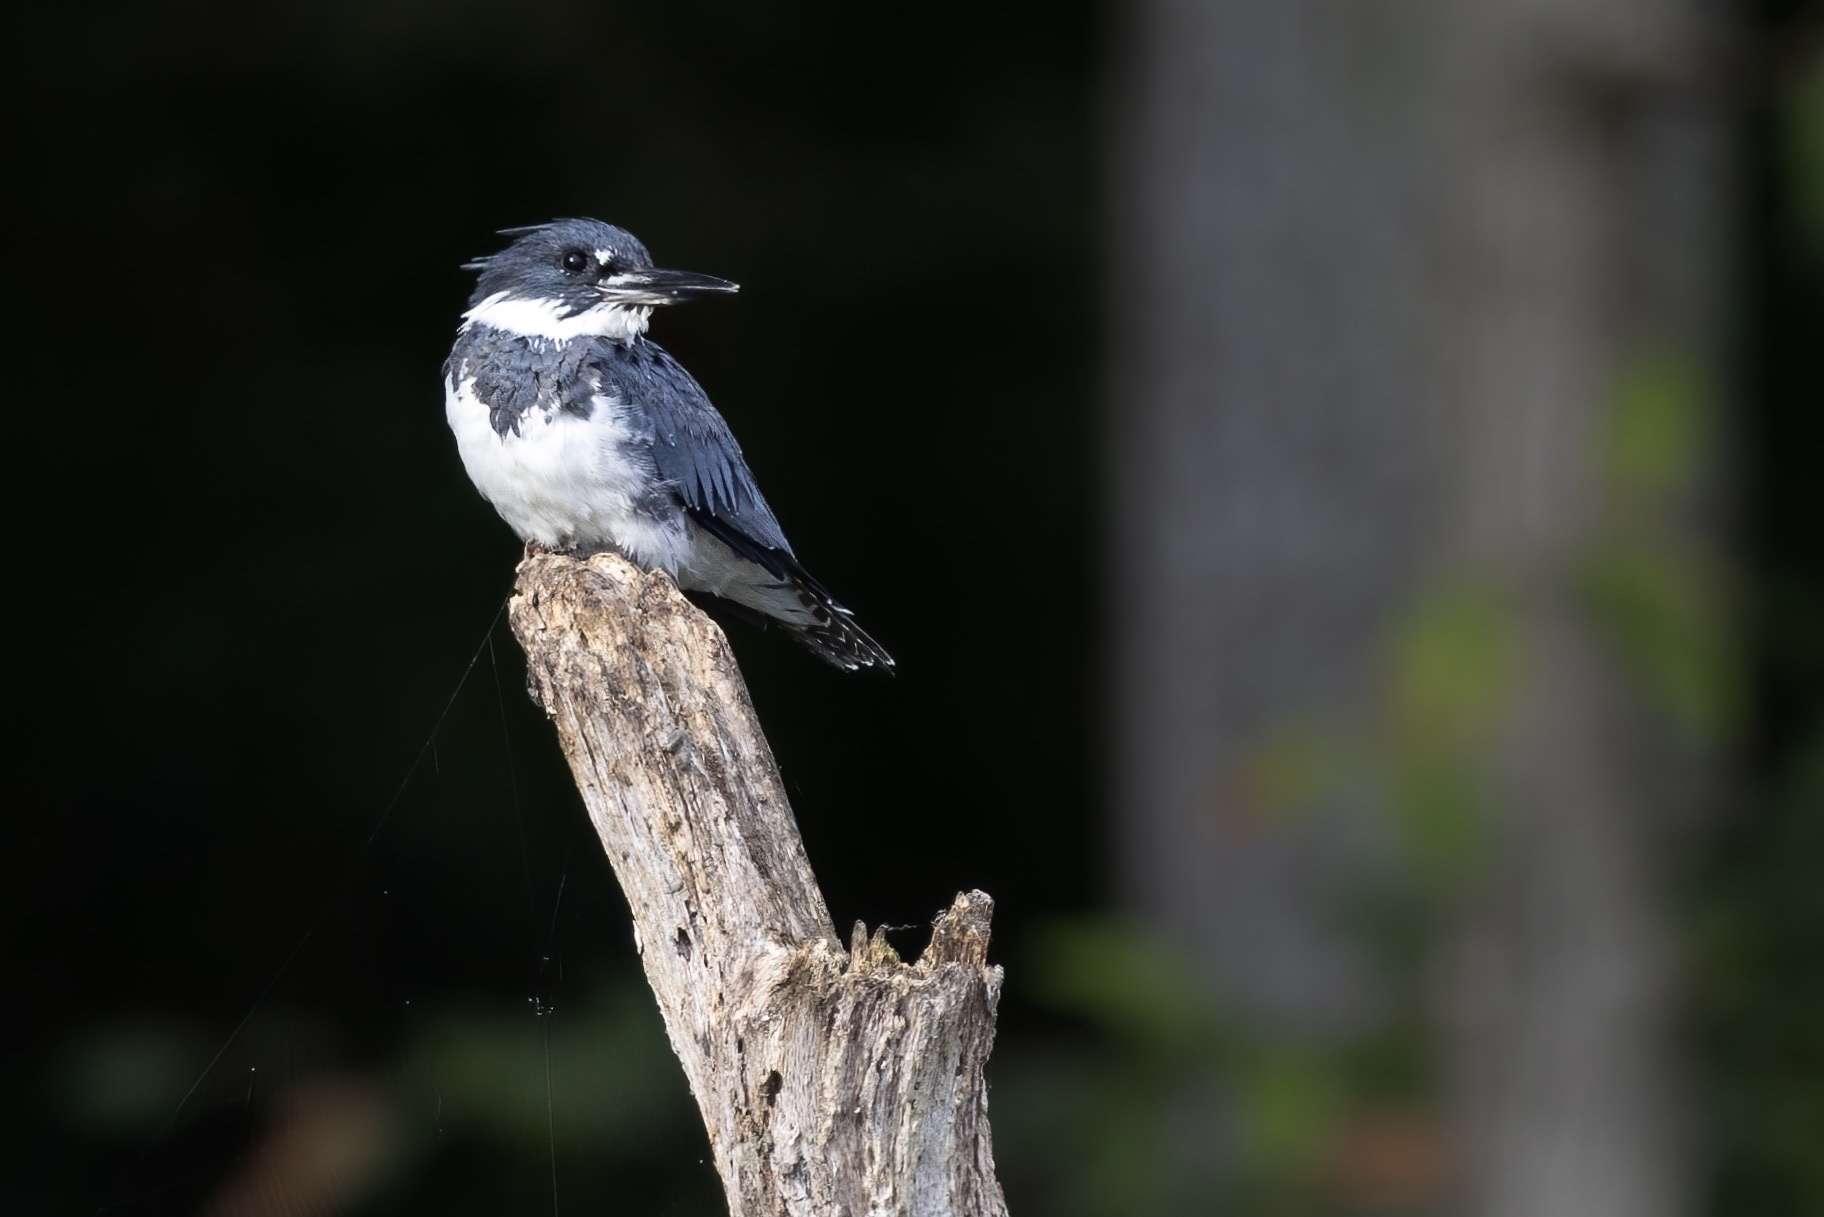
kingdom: Animalia
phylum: Chordata
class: Aves
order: Coraciiformes
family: Alcedinidae
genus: Megaceryle
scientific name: Megaceryle alcyon
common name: Belted kingfisher
